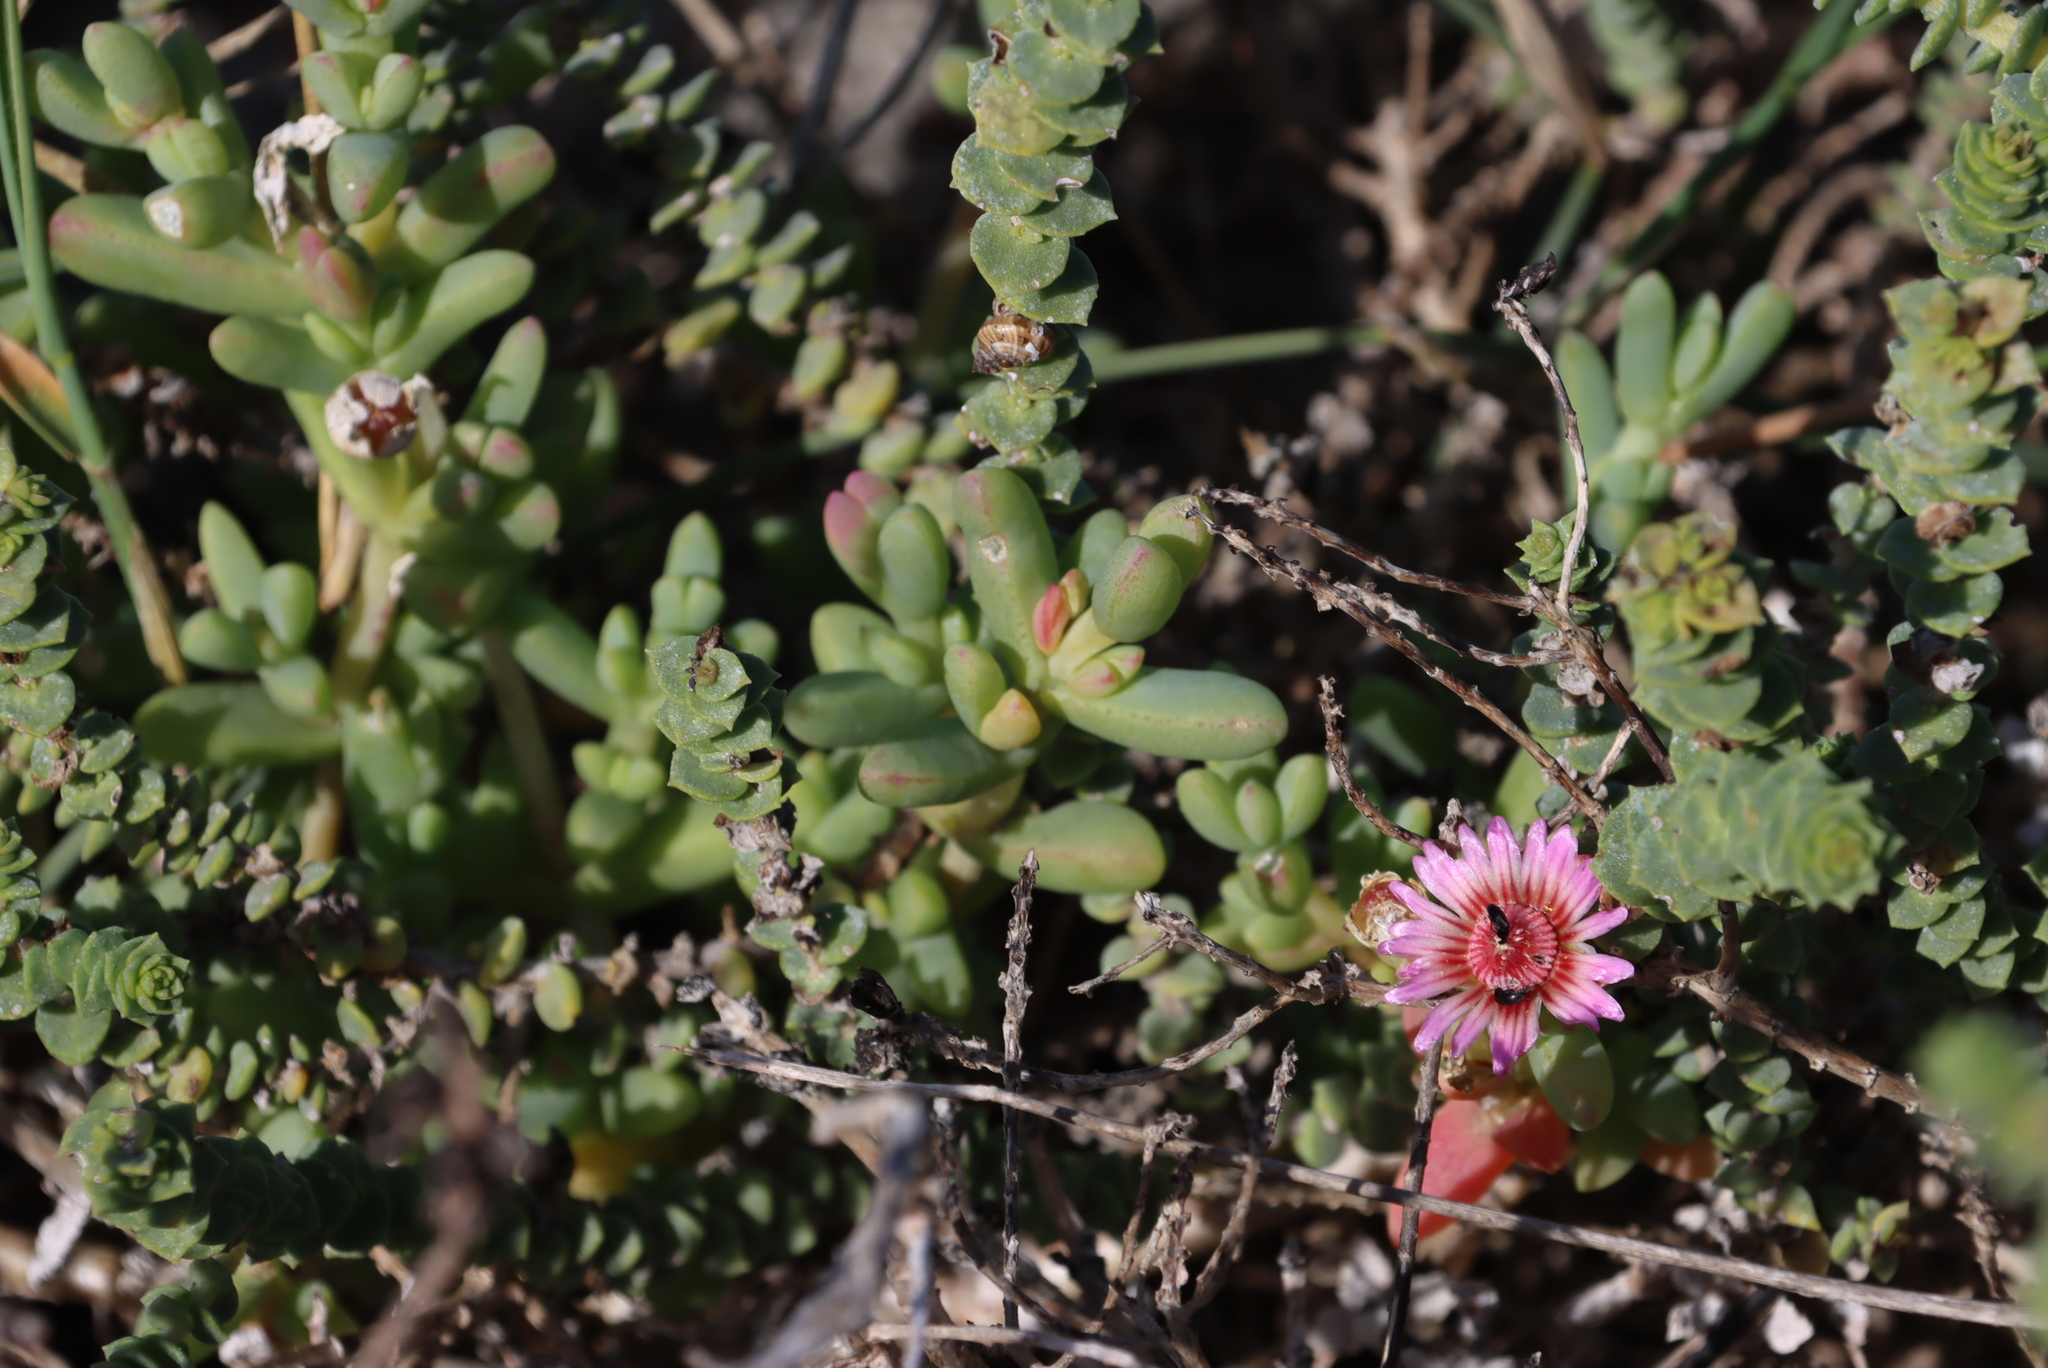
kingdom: Plantae
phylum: Tracheophyta
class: Magnoliopsida
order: Caryophyllales
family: Aizoaceae
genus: Amphibolia
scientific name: Amphibolia laevis
